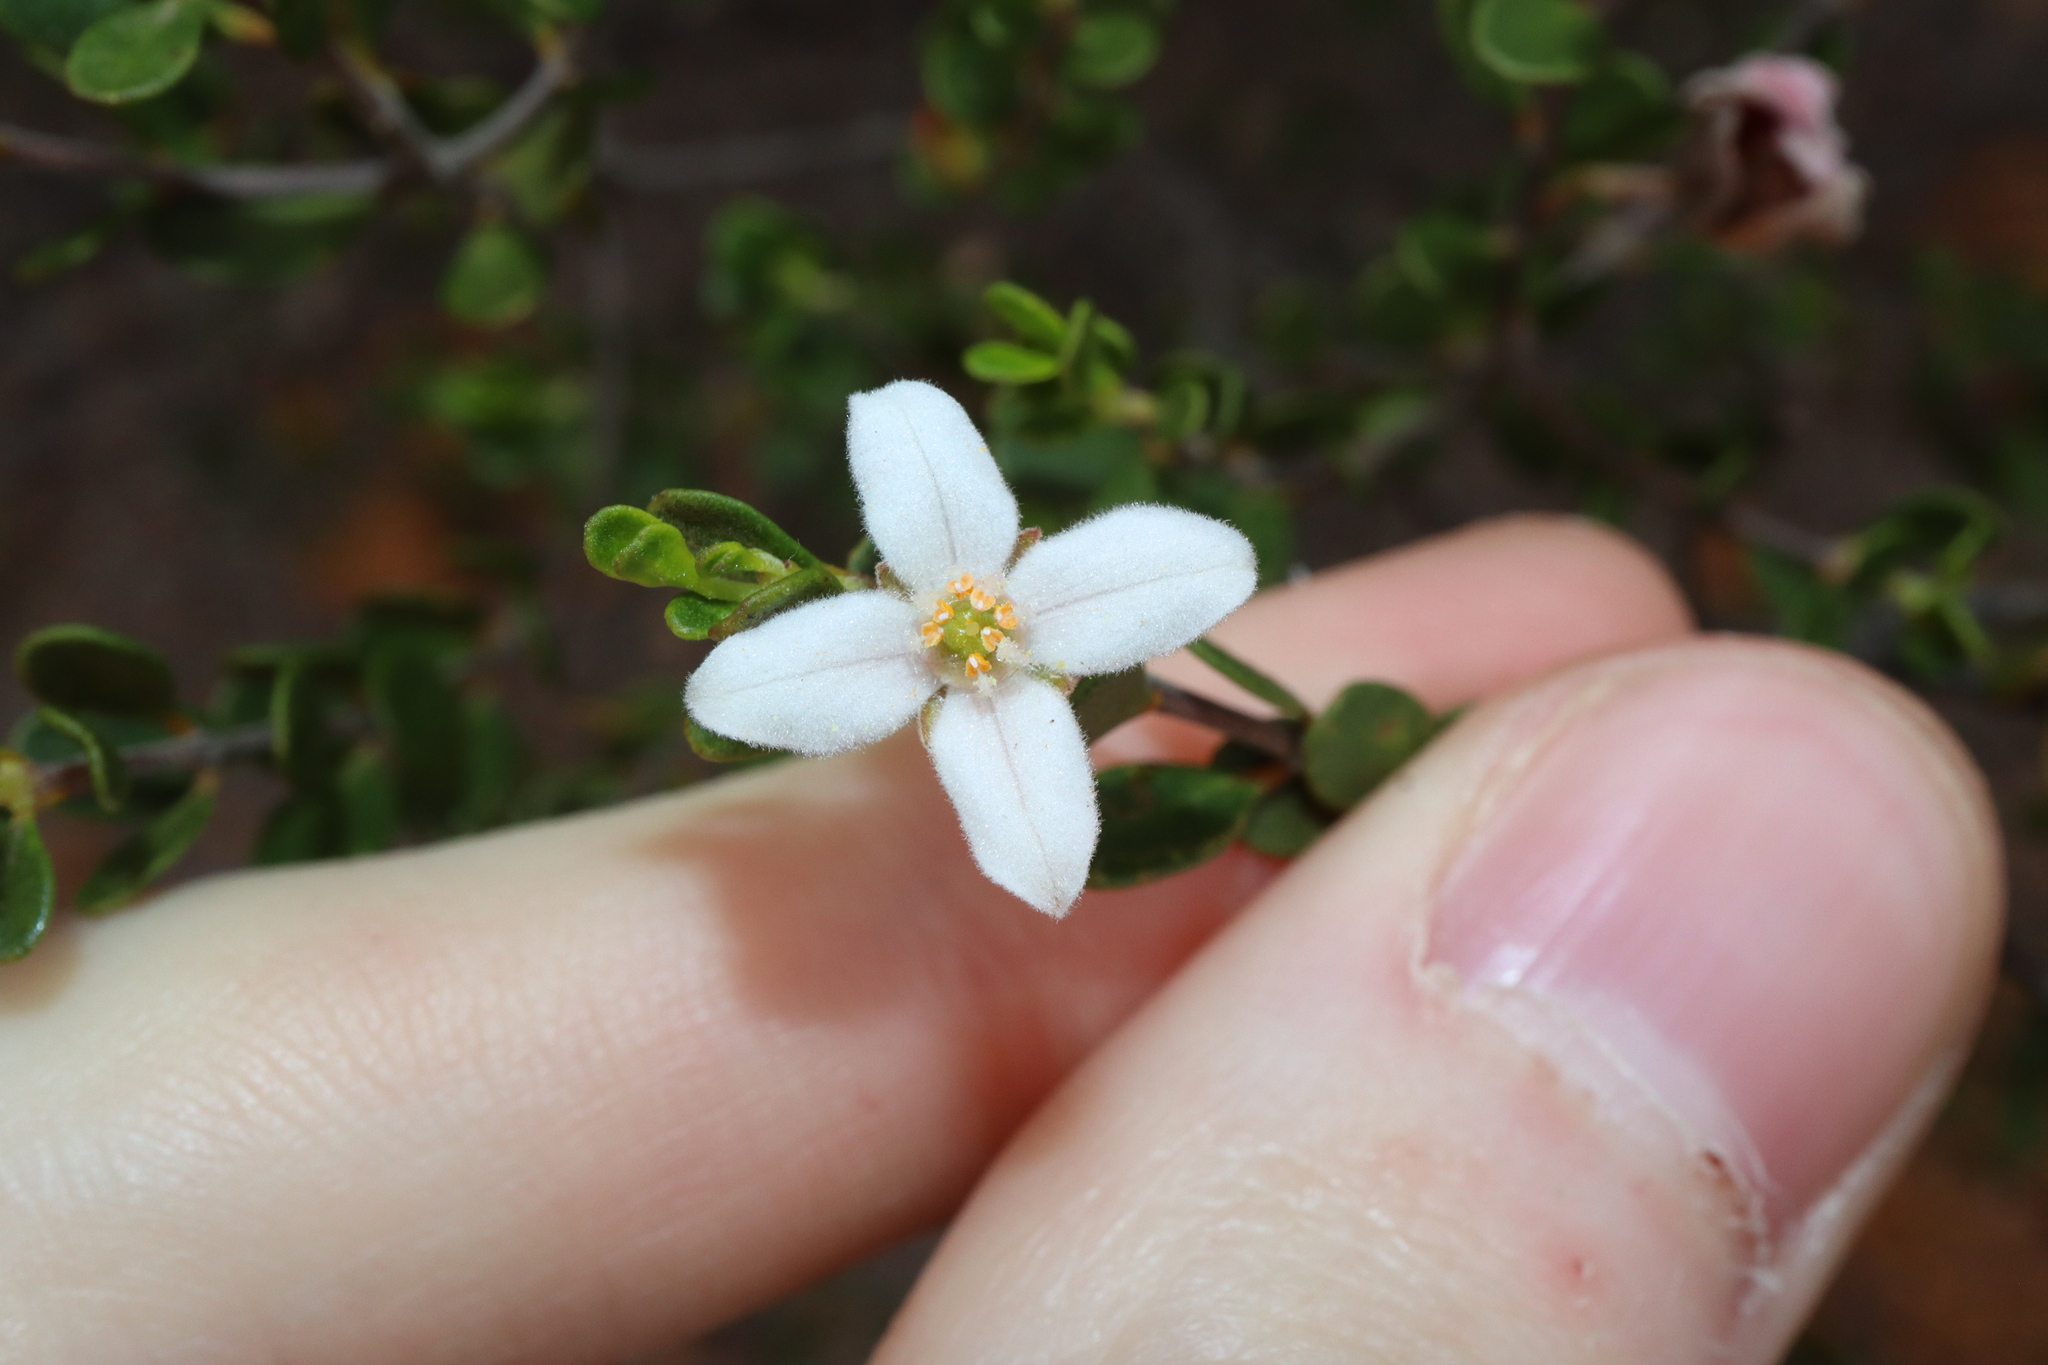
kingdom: Plantae
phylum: Tracheophyta
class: Magnoliopsida
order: Sapindales
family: Rutaceae
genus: Boronia
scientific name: Boronia ternata
